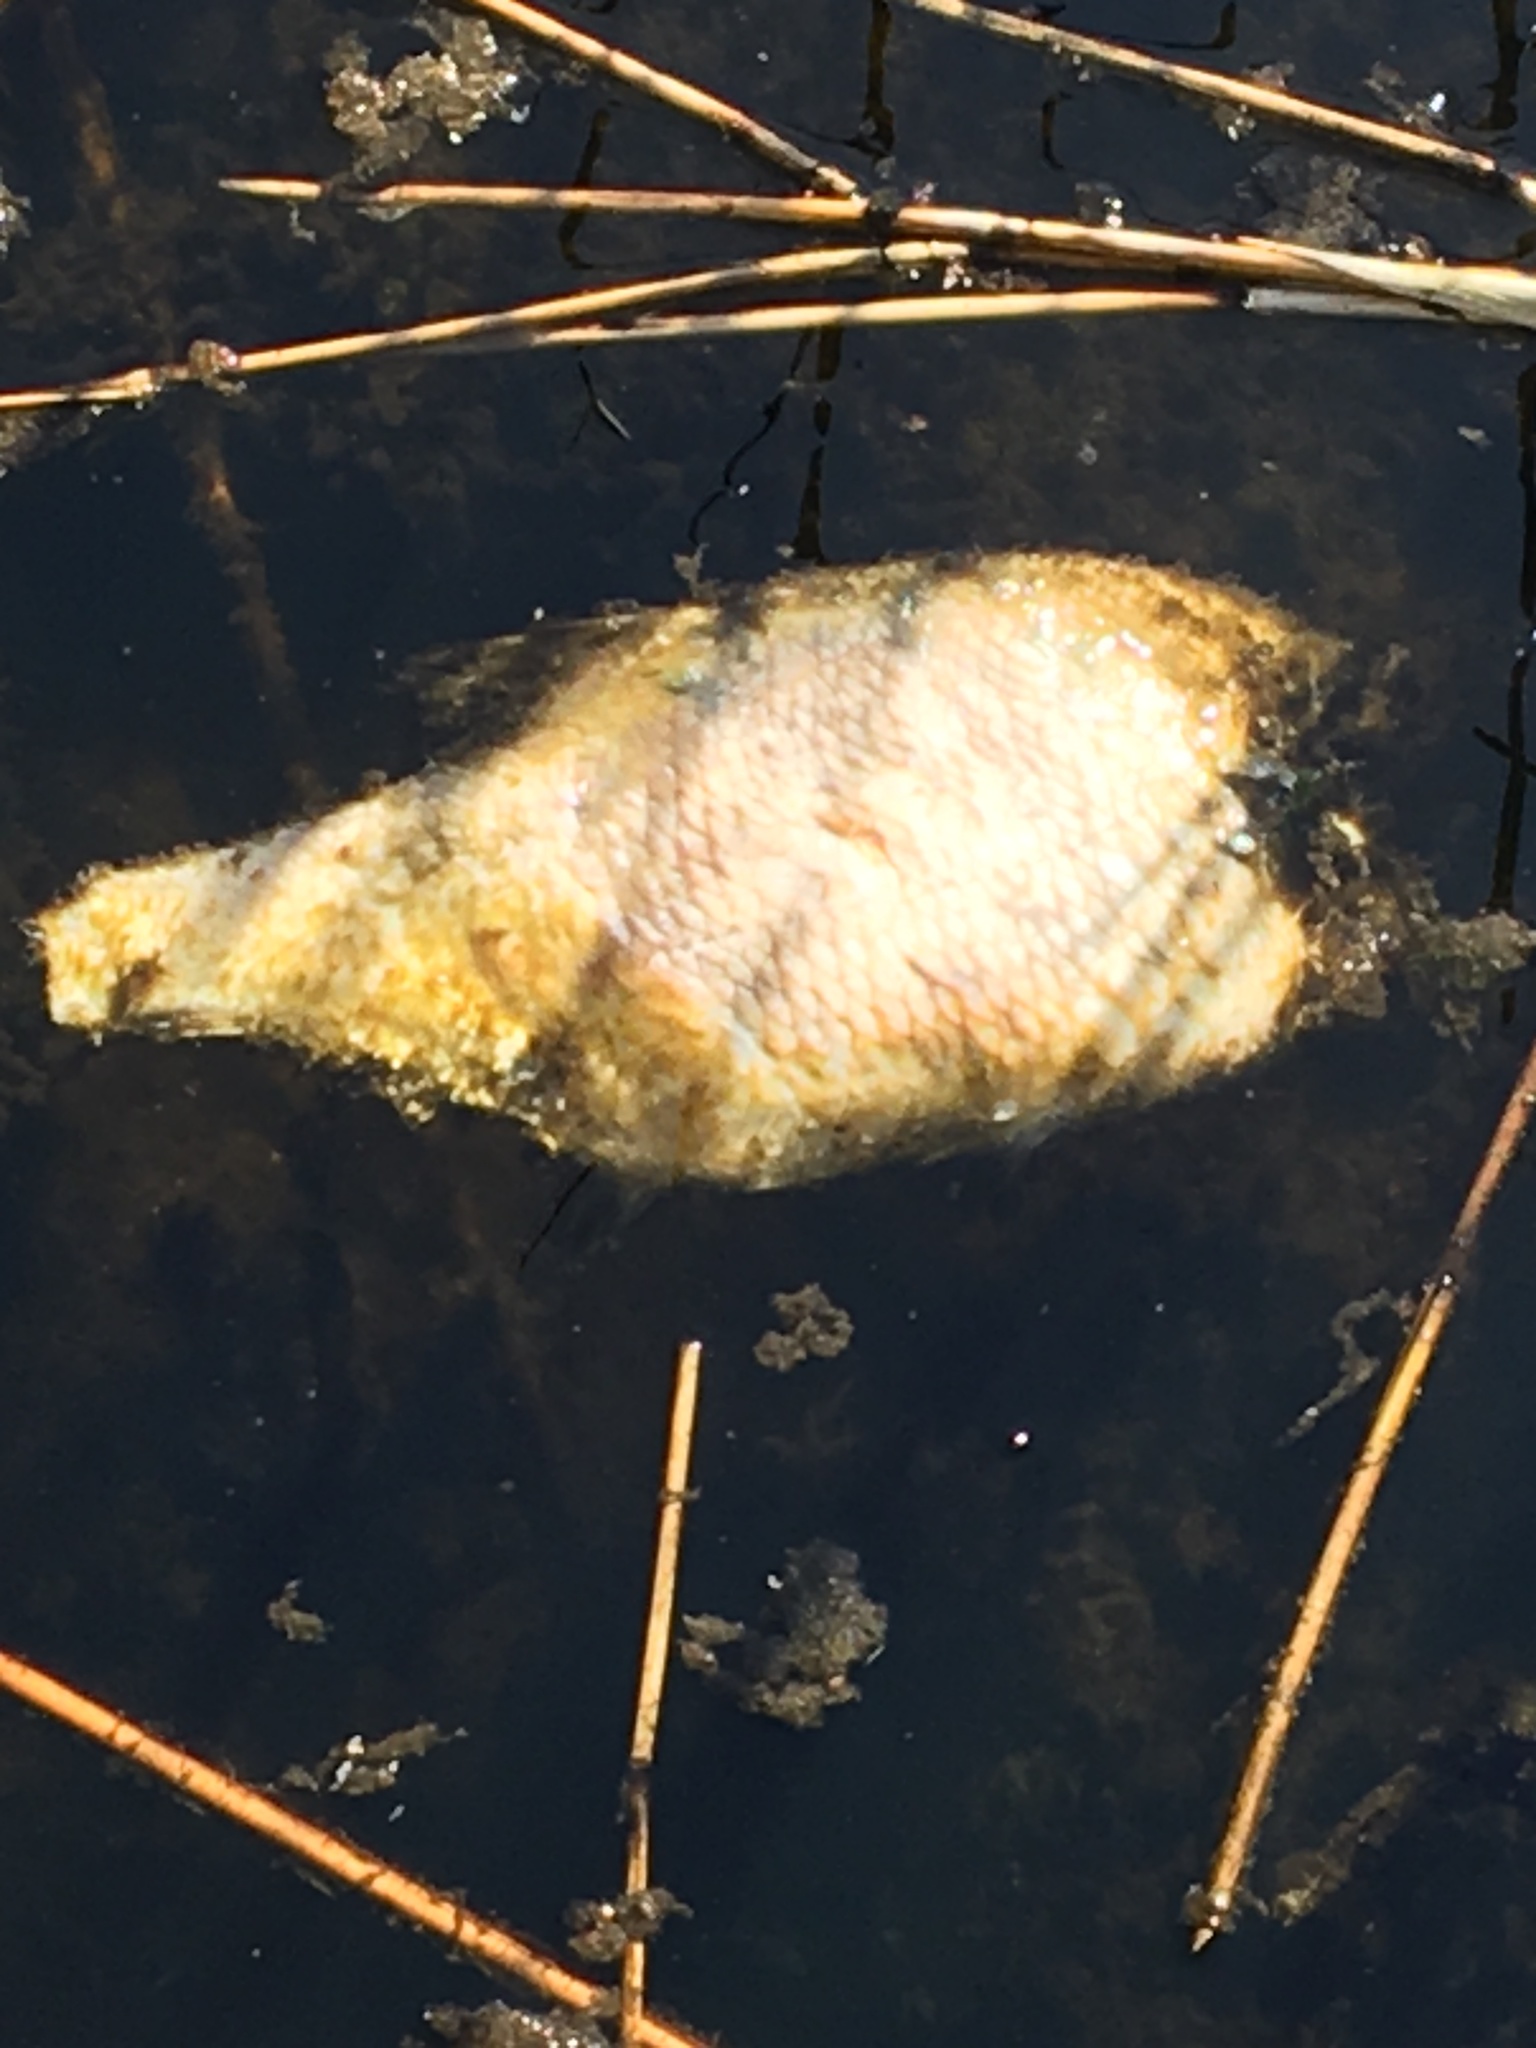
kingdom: Animalia
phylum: Chordata
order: Cypriniformes
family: Cyprinidae
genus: Abramis
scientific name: Abramis brama
